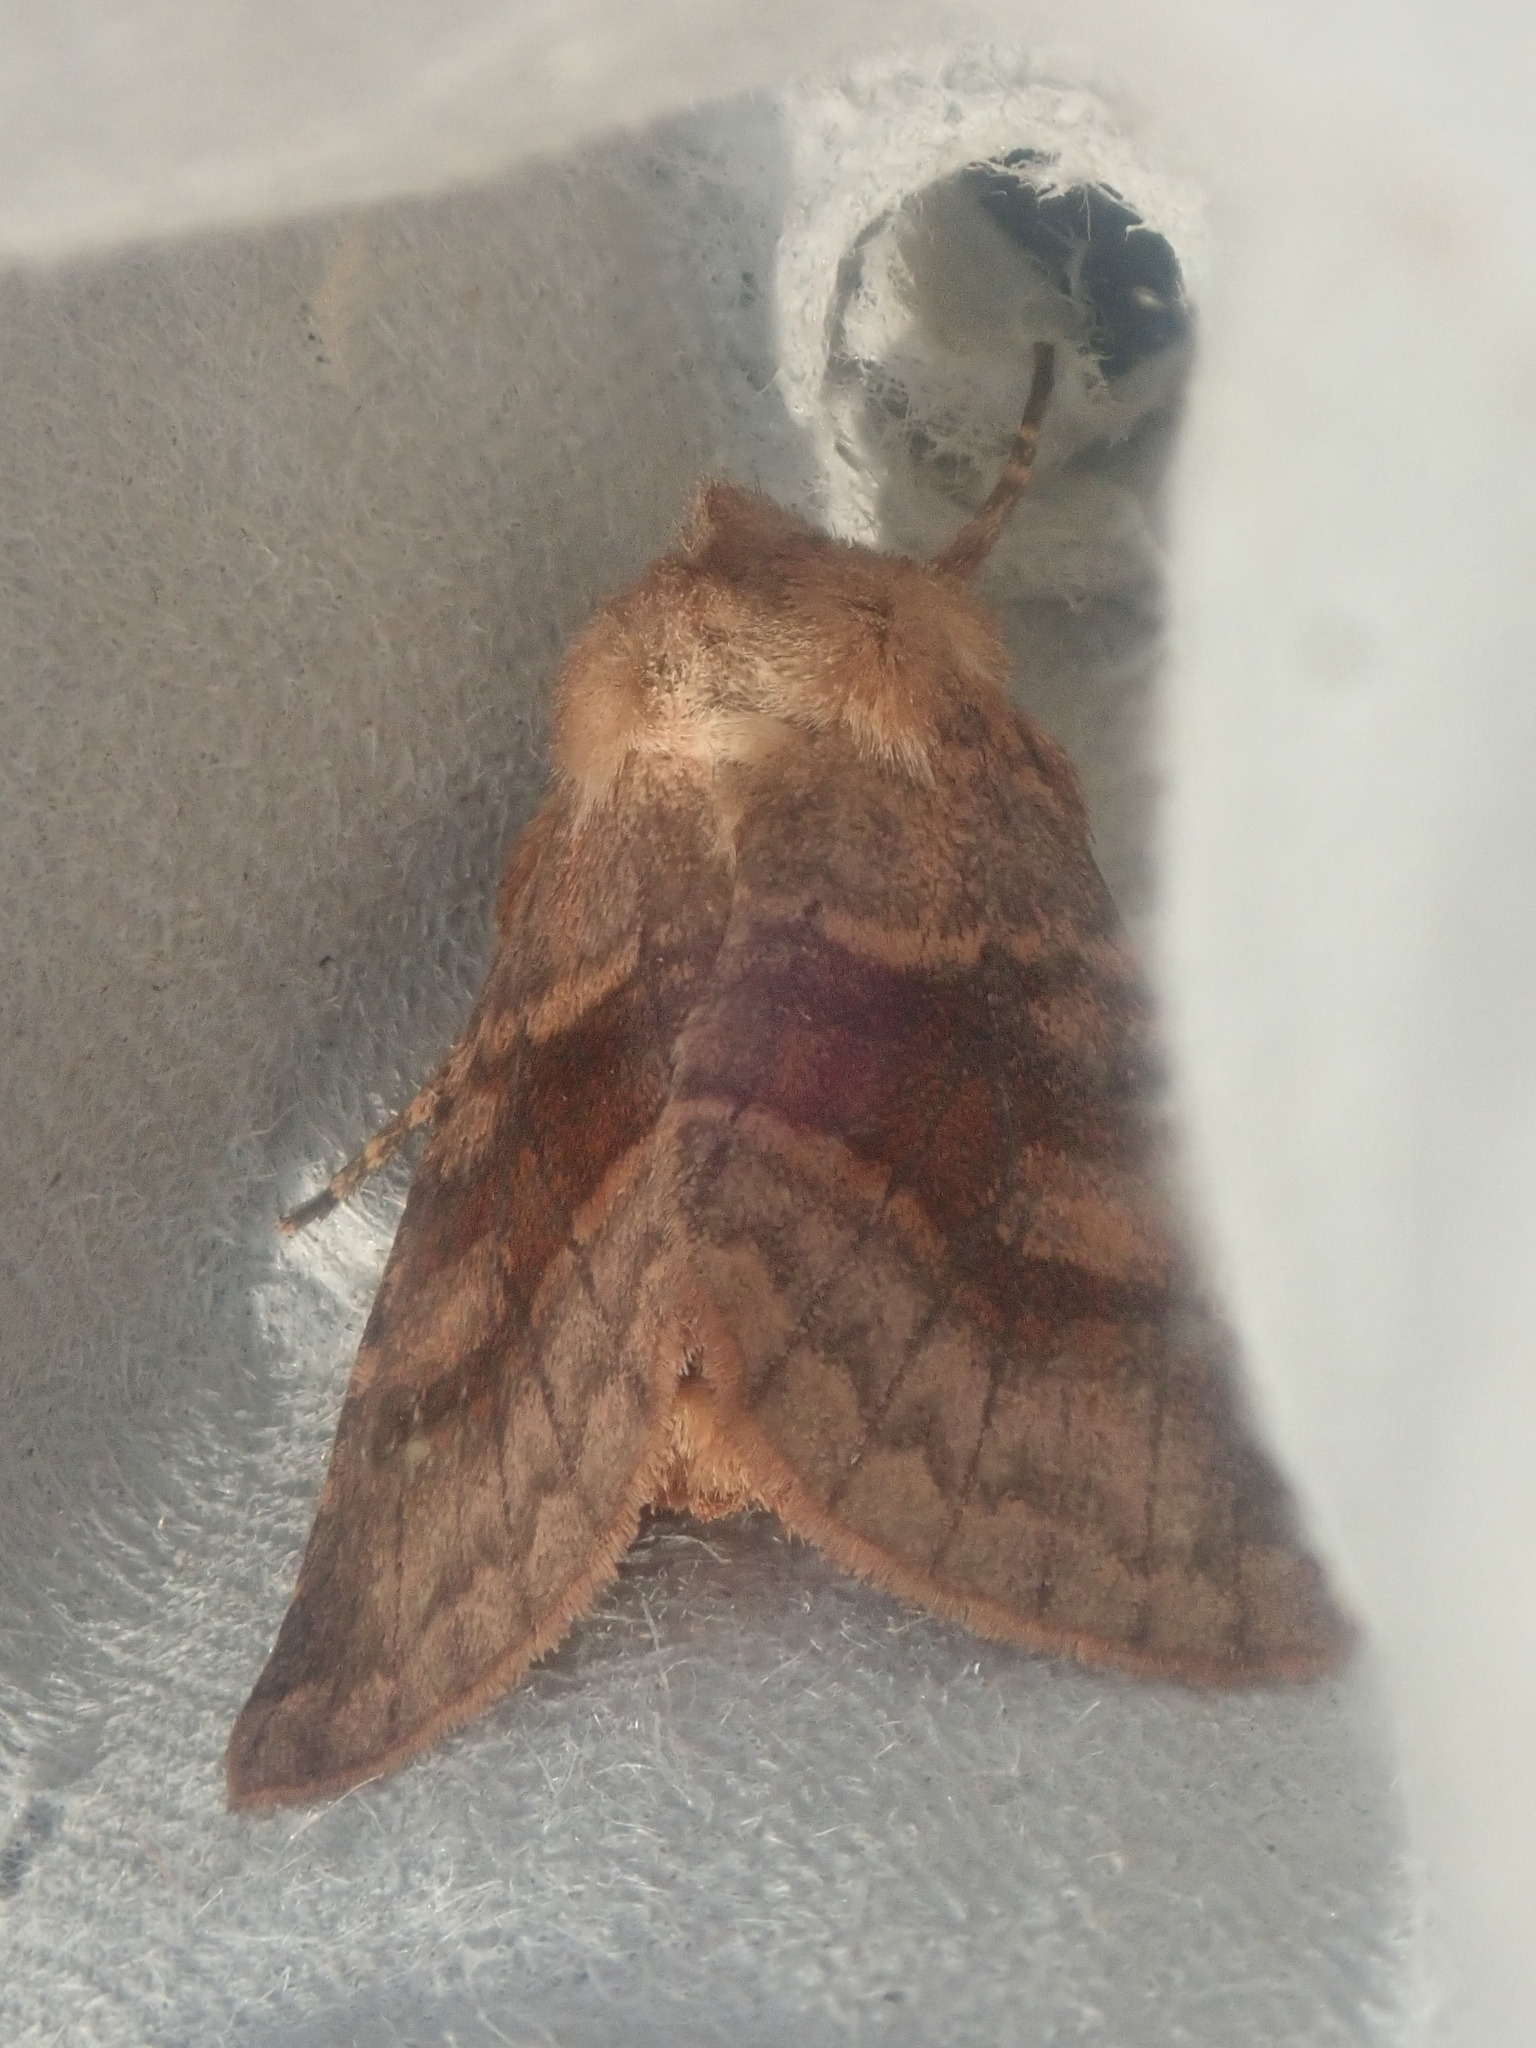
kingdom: Animalia
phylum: Arthropoda
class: Insecta
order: Lepidoptera
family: Noctuidae
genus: Nephelodes
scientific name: Nephelodes minians
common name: Bronzed cutworm
